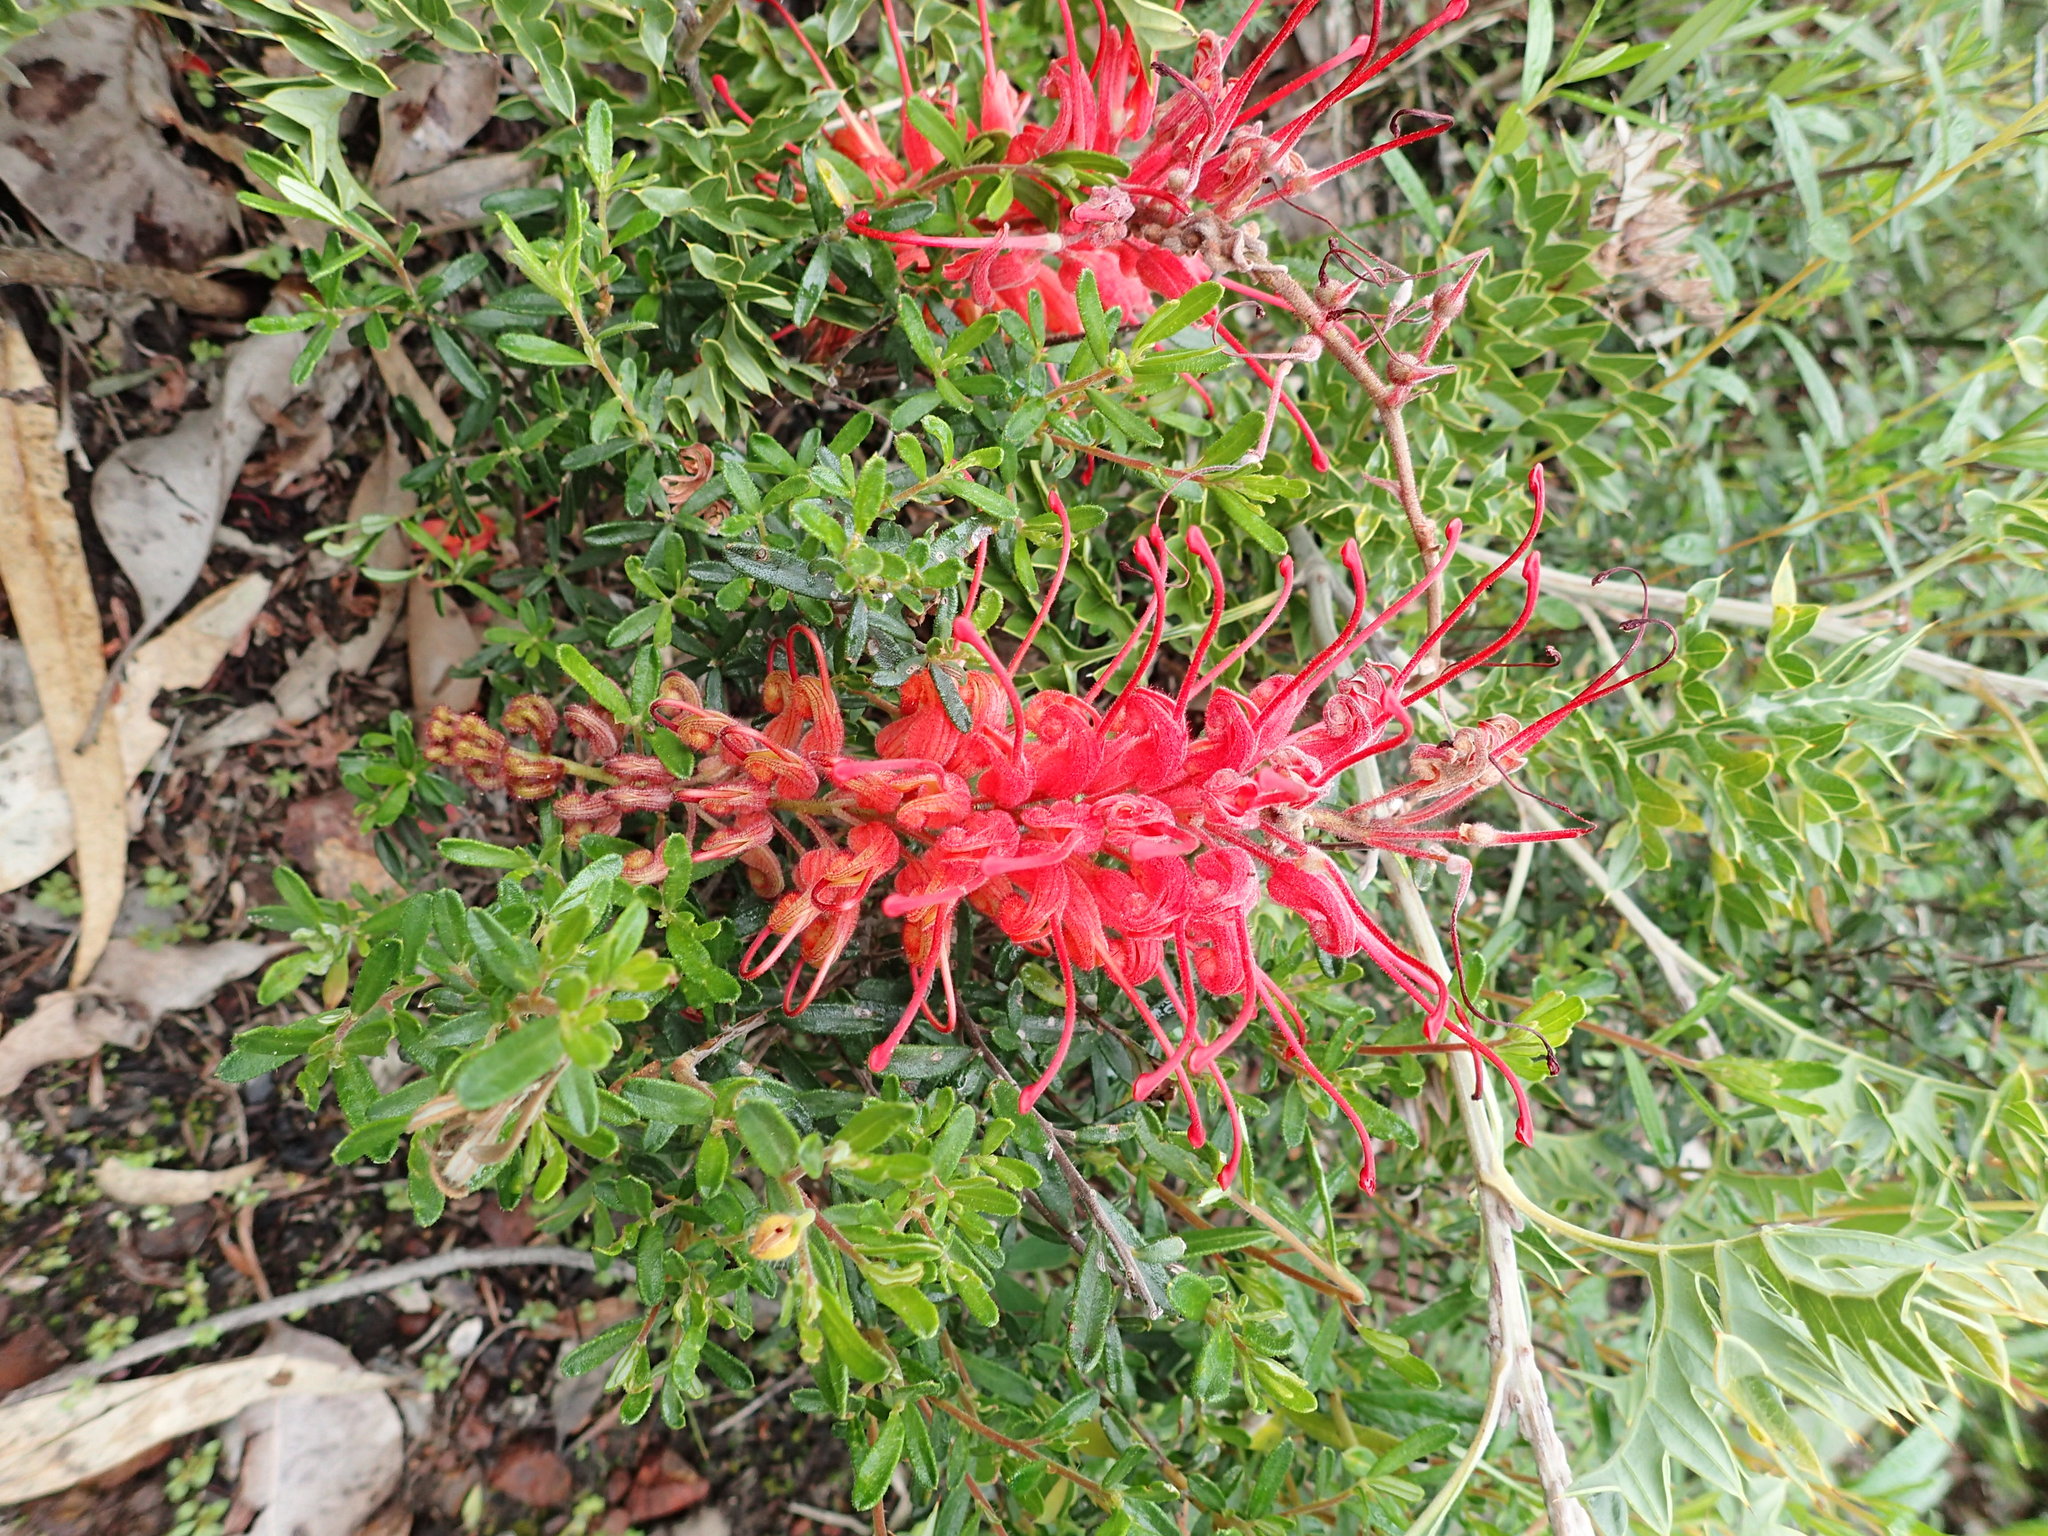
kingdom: Plantae
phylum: Tracheophyta
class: Magnoliopsida
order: Proteales
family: Proteaceae
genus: Grevillea
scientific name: Grevillea bipinnatifida
